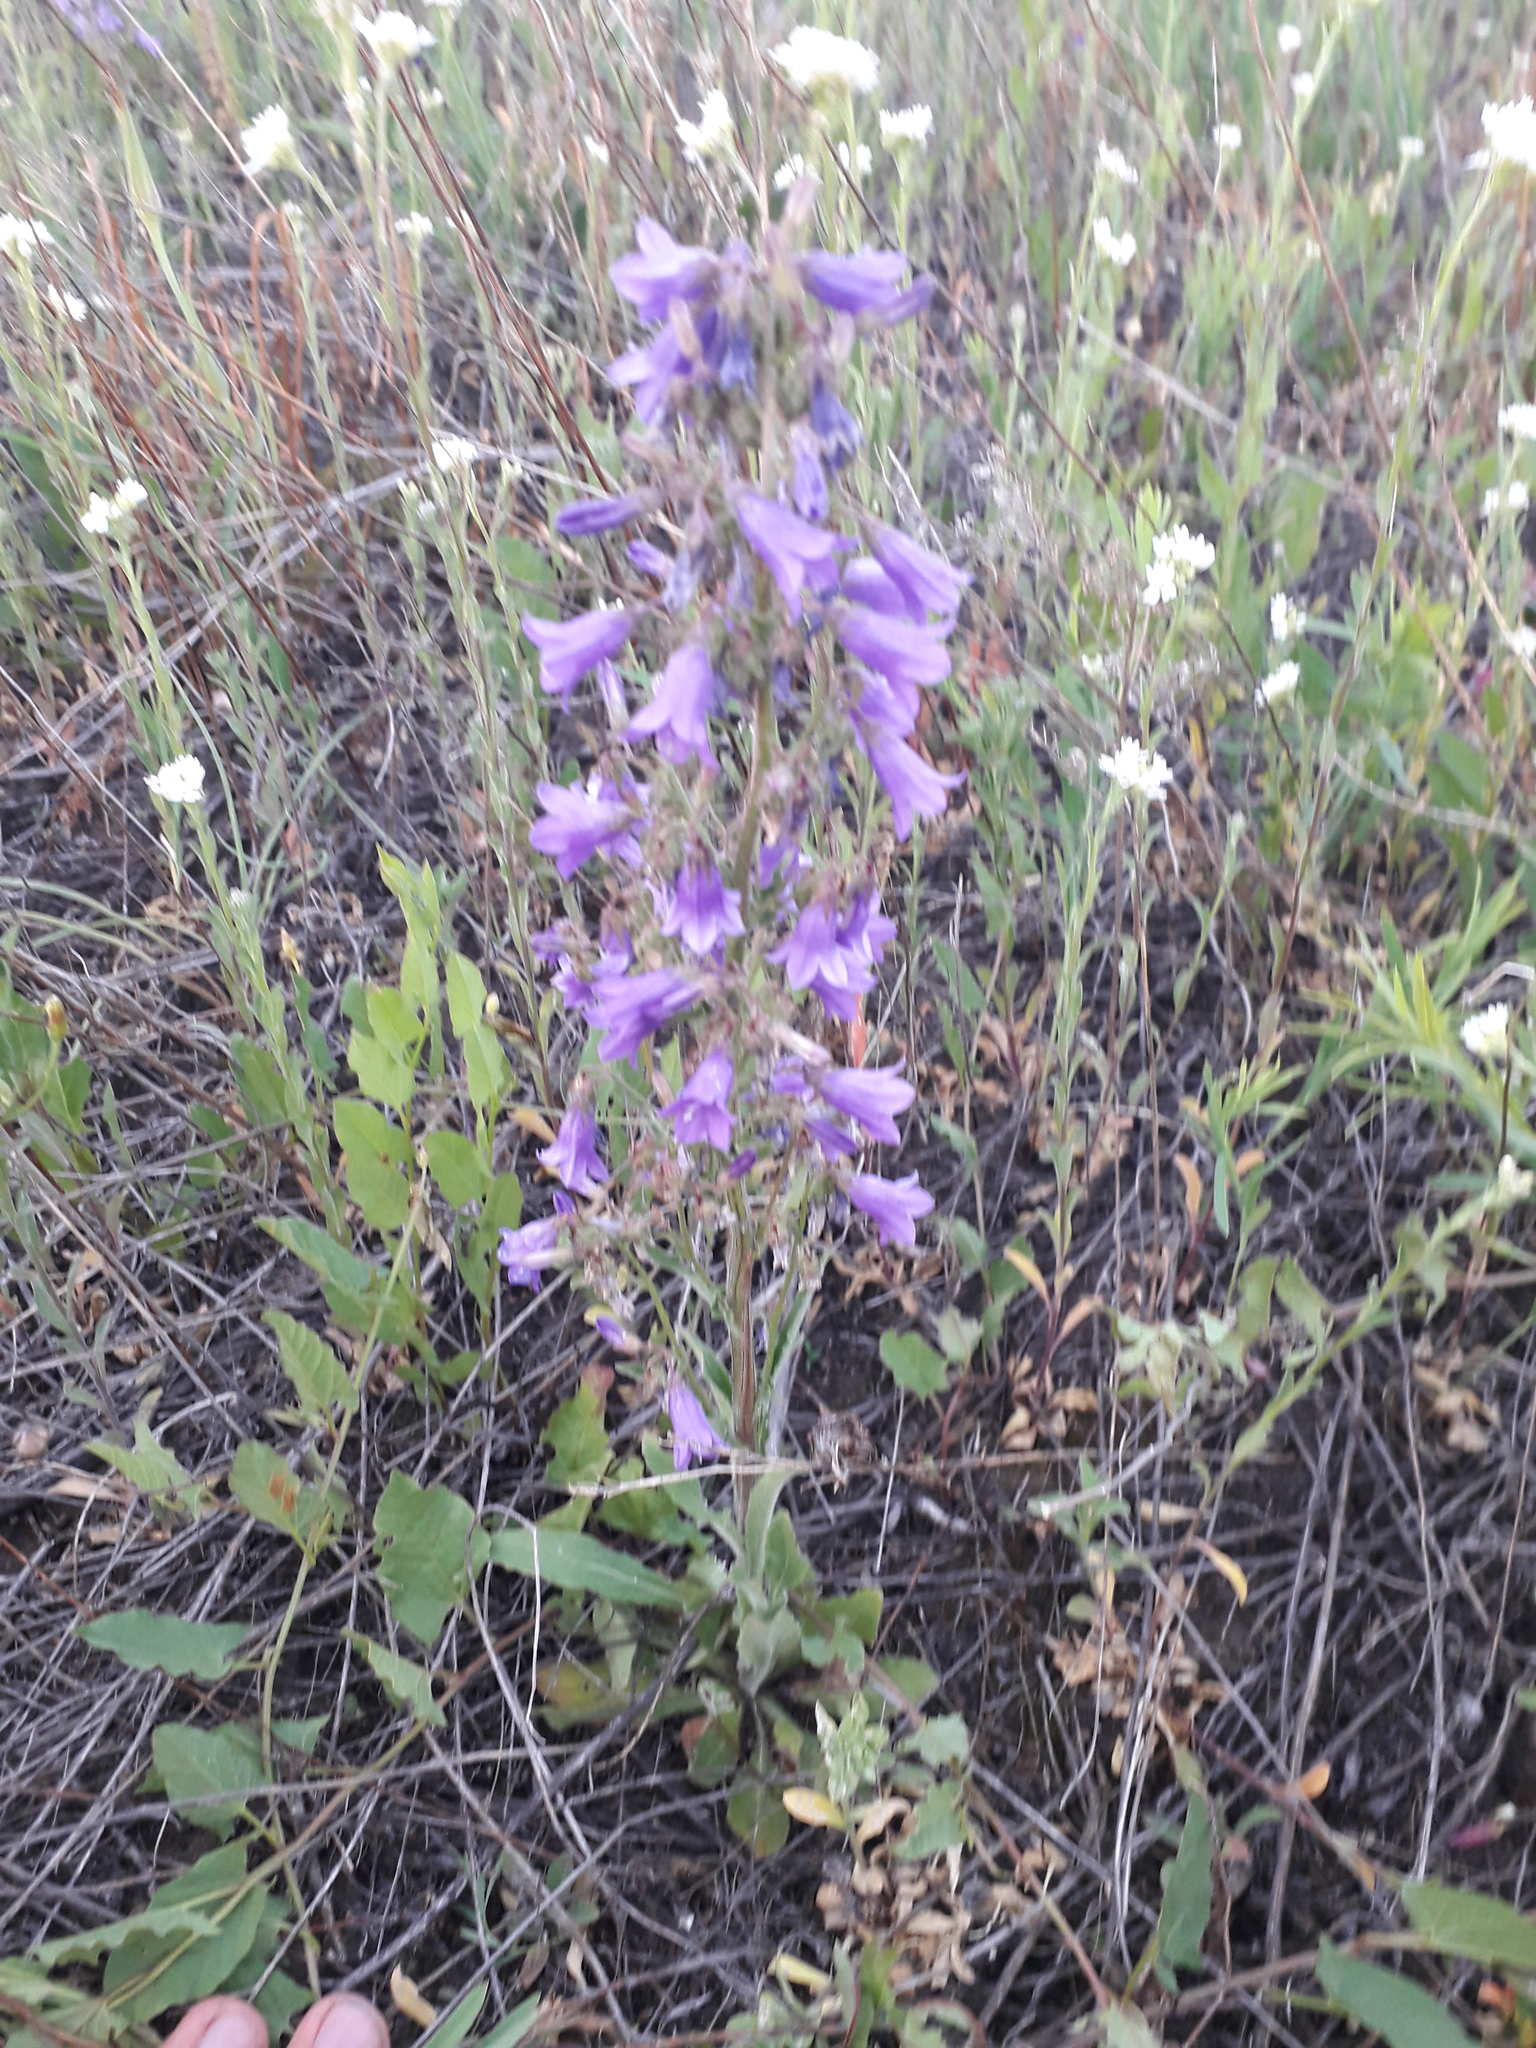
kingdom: Plantae
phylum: Tracheophyta
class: Magnoliopsida
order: Asterales
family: Campanulaceae
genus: Campanula
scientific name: Campanula sibirica
